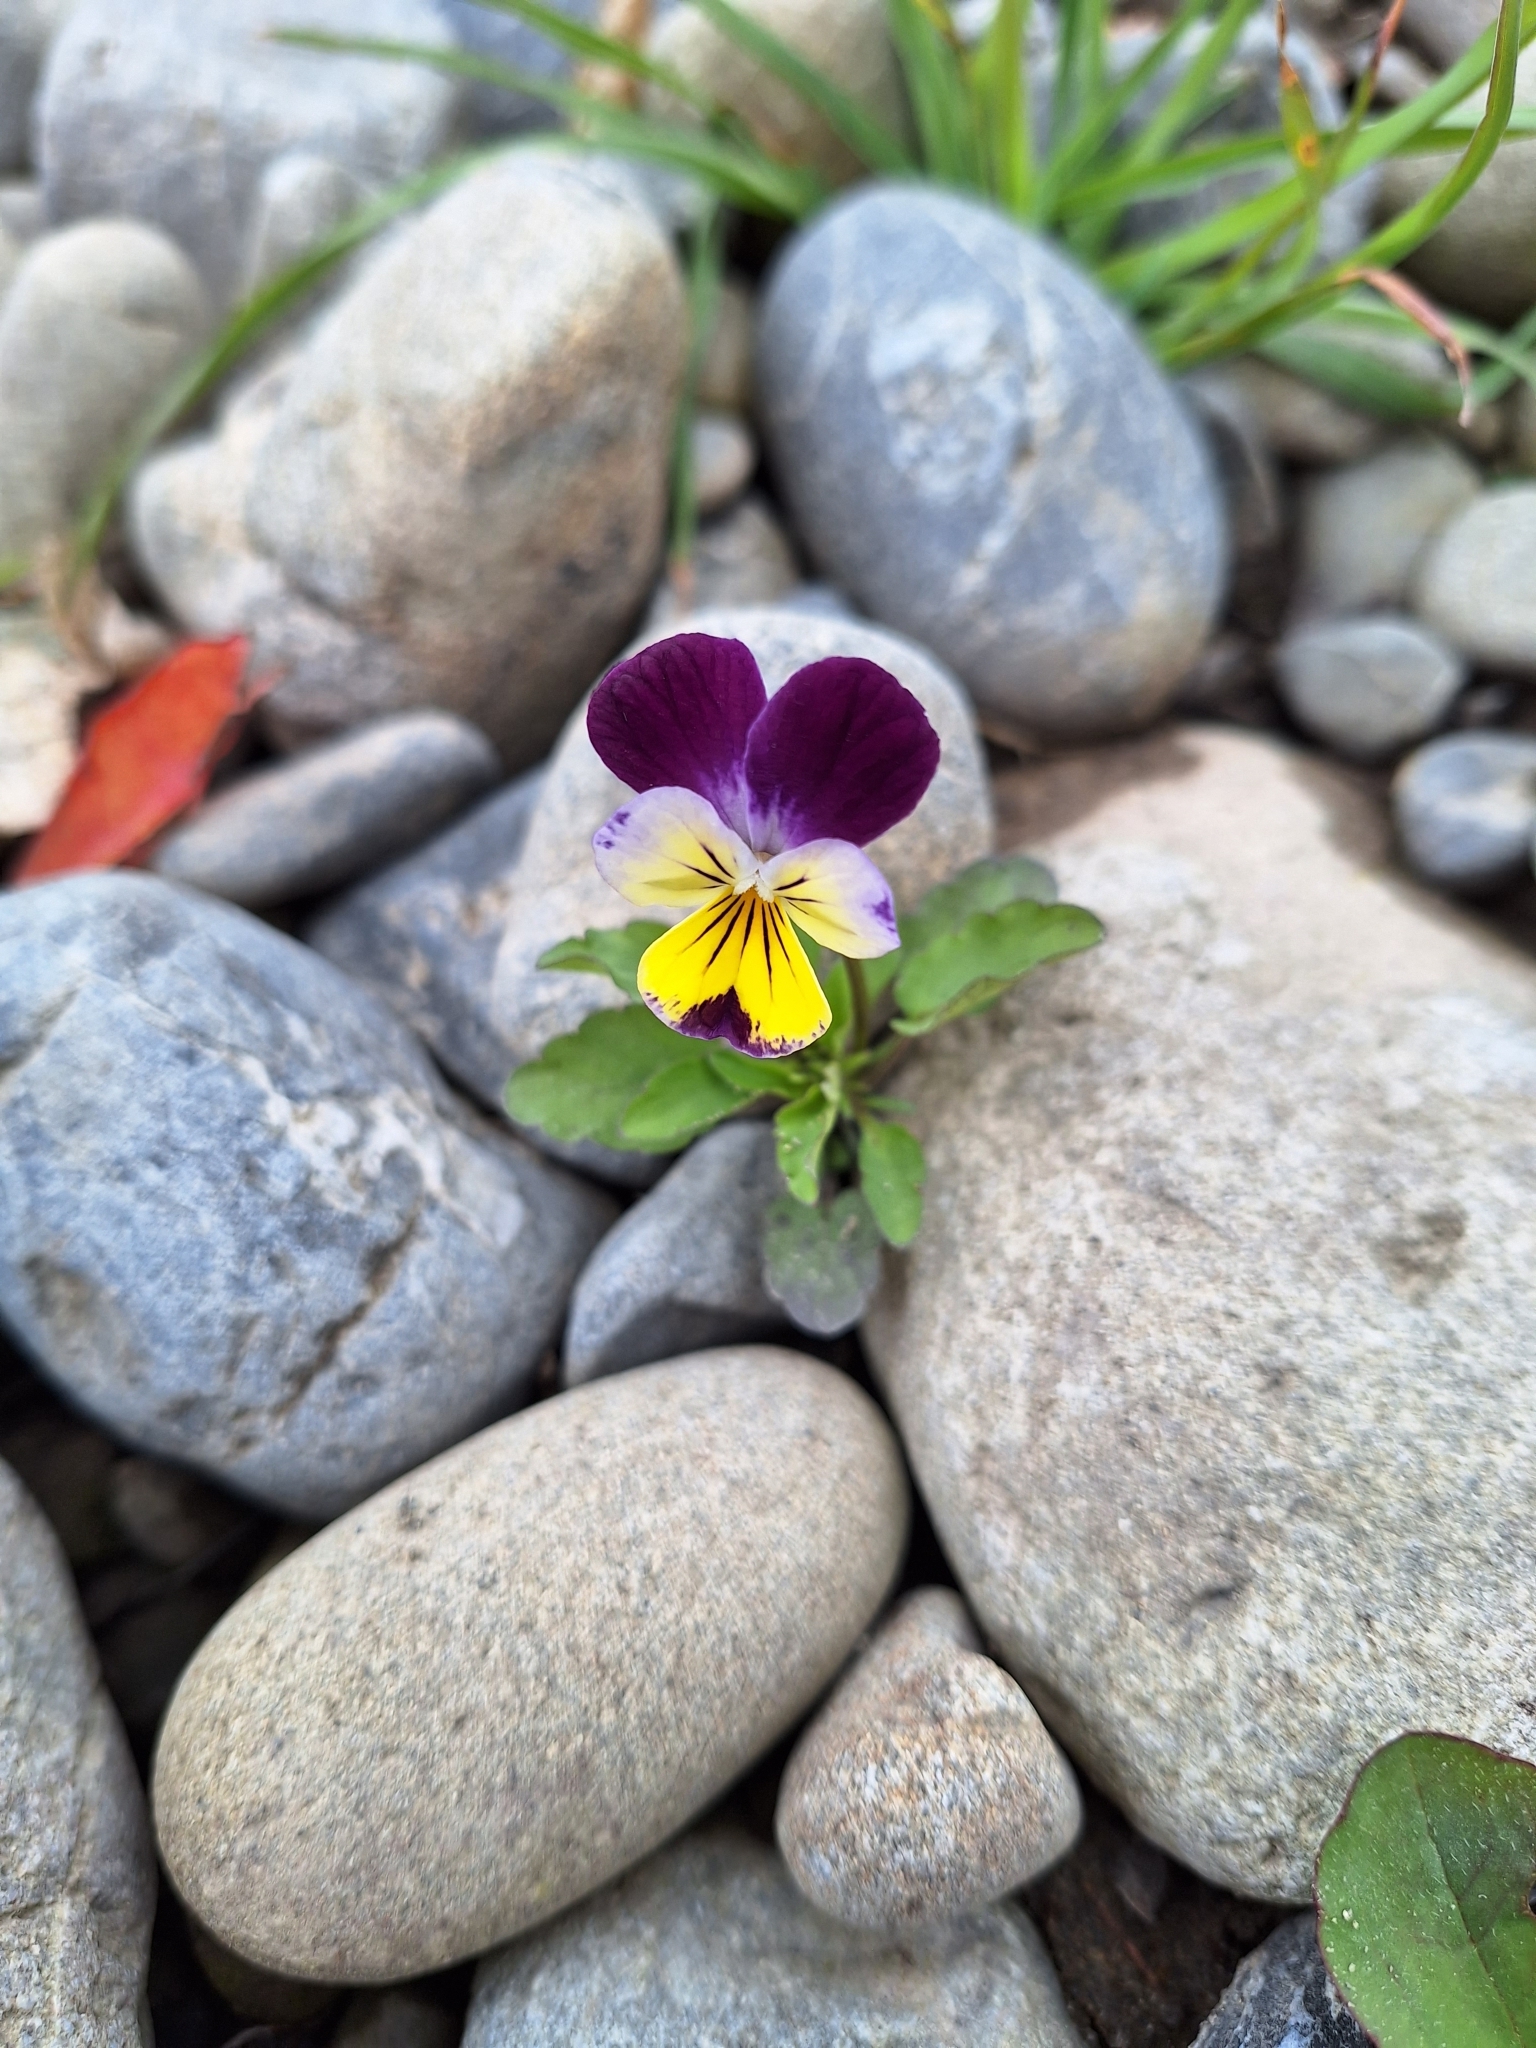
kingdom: Plantae
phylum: Tracheophyta
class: Magnoliopsida
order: Malpighiales
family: Violaceae
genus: Viola
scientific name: Viola williamsii
